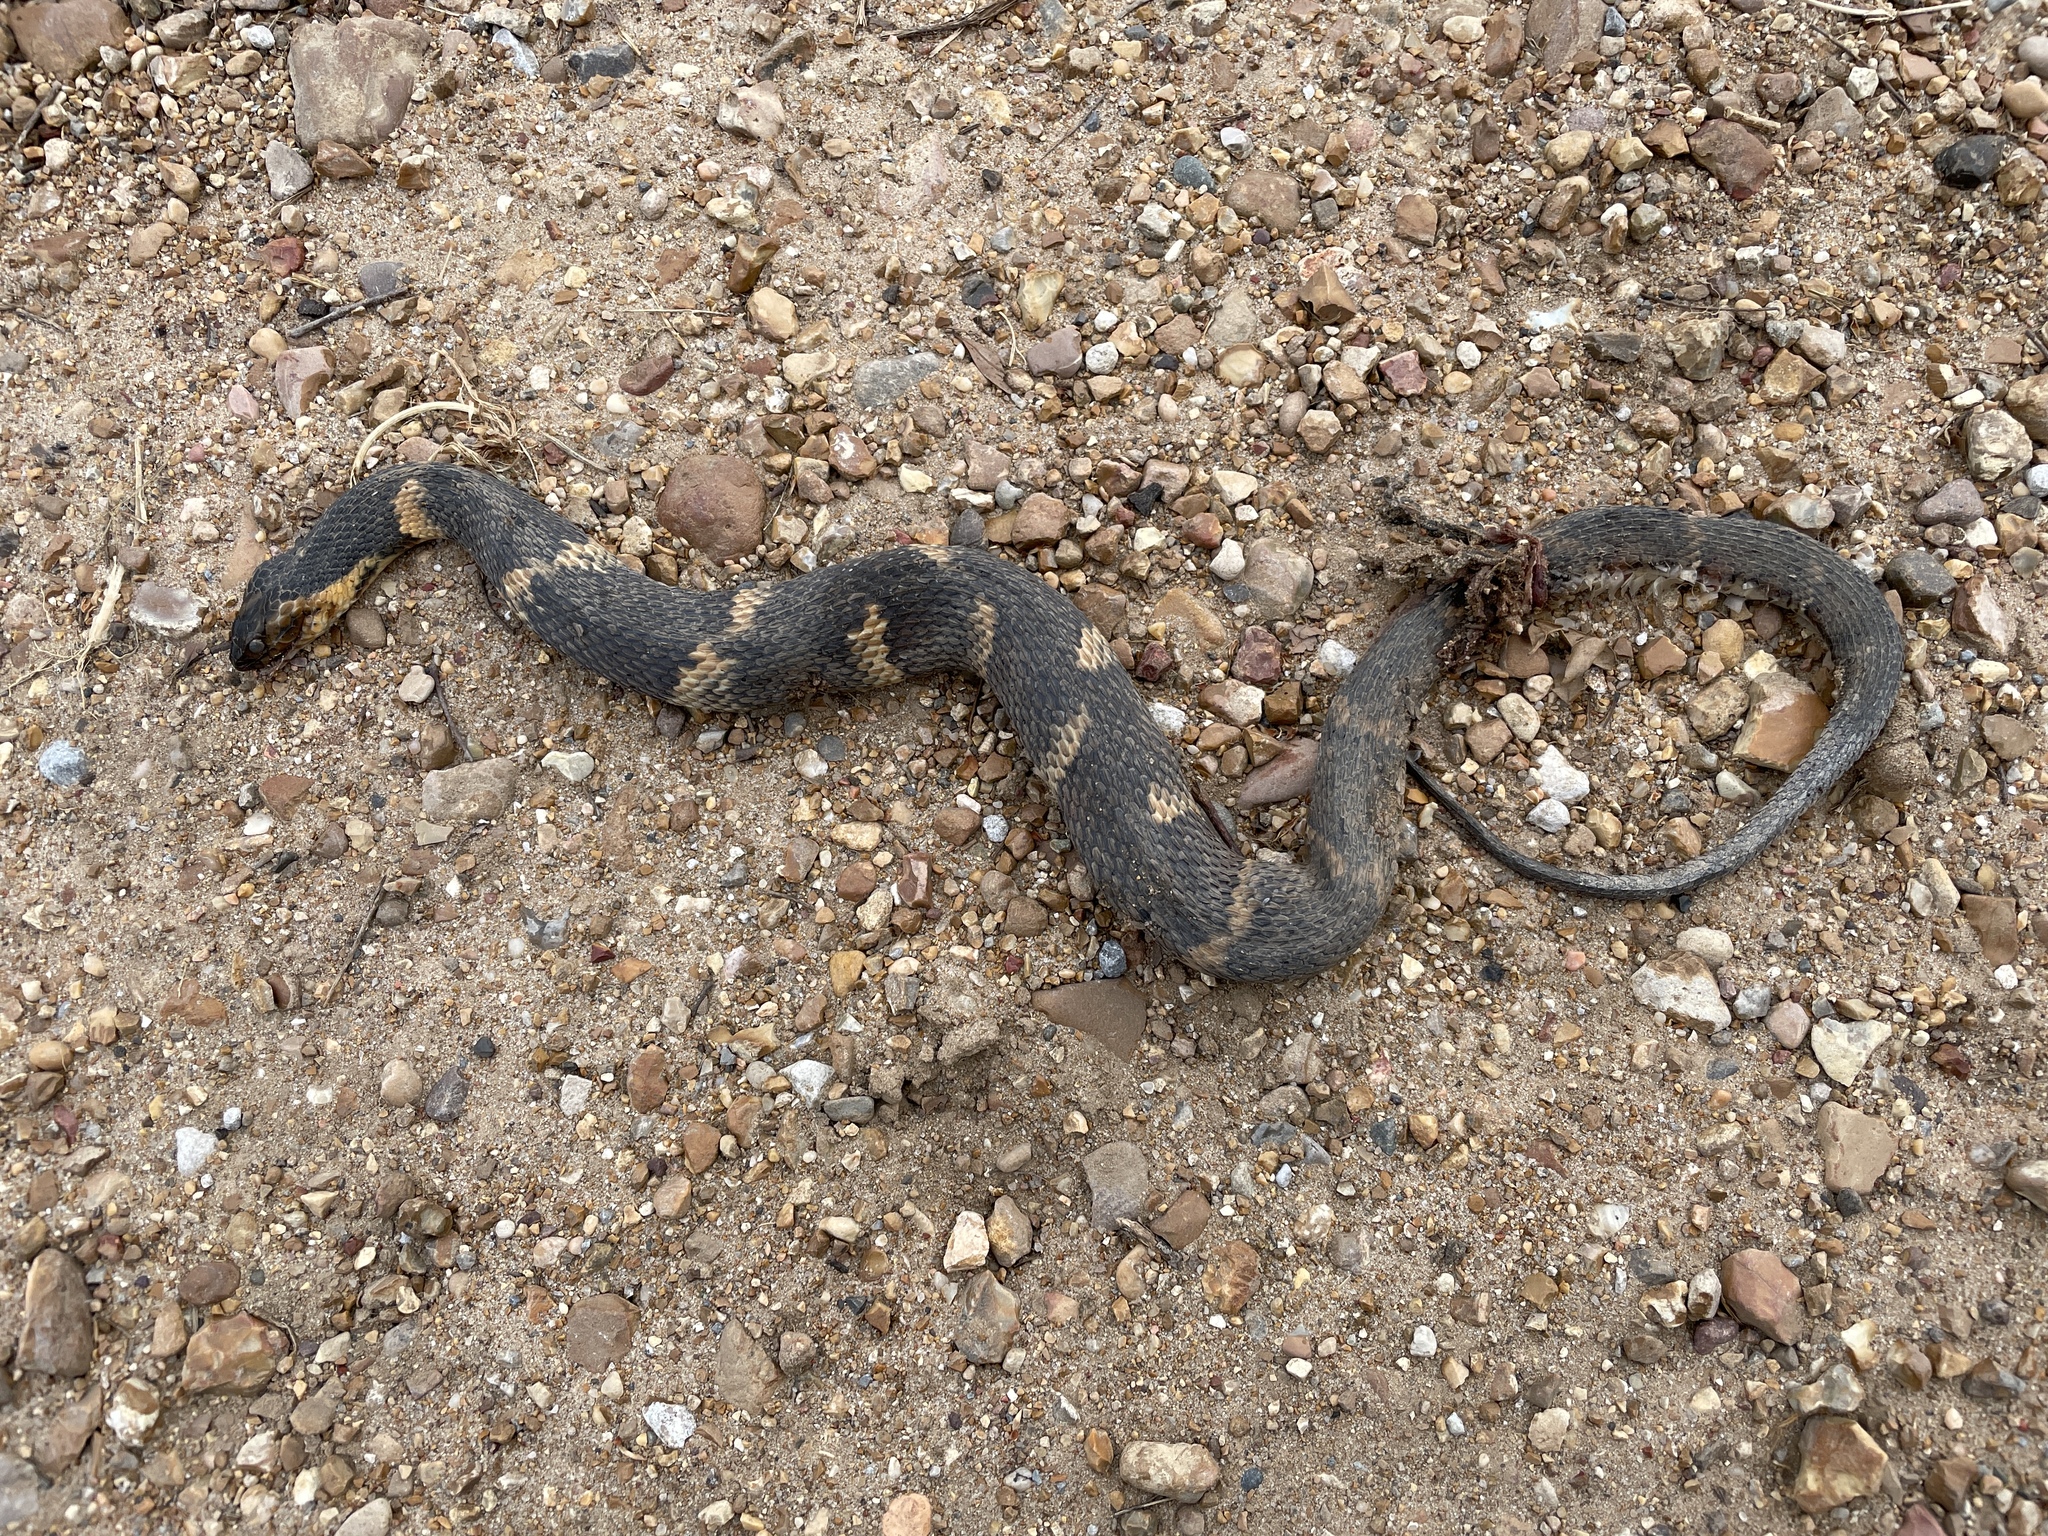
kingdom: Animalia
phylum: Chordata
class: Squamata
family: Colubridae
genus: Nerodia
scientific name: Nerodia fasciata
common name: Southern water snake
